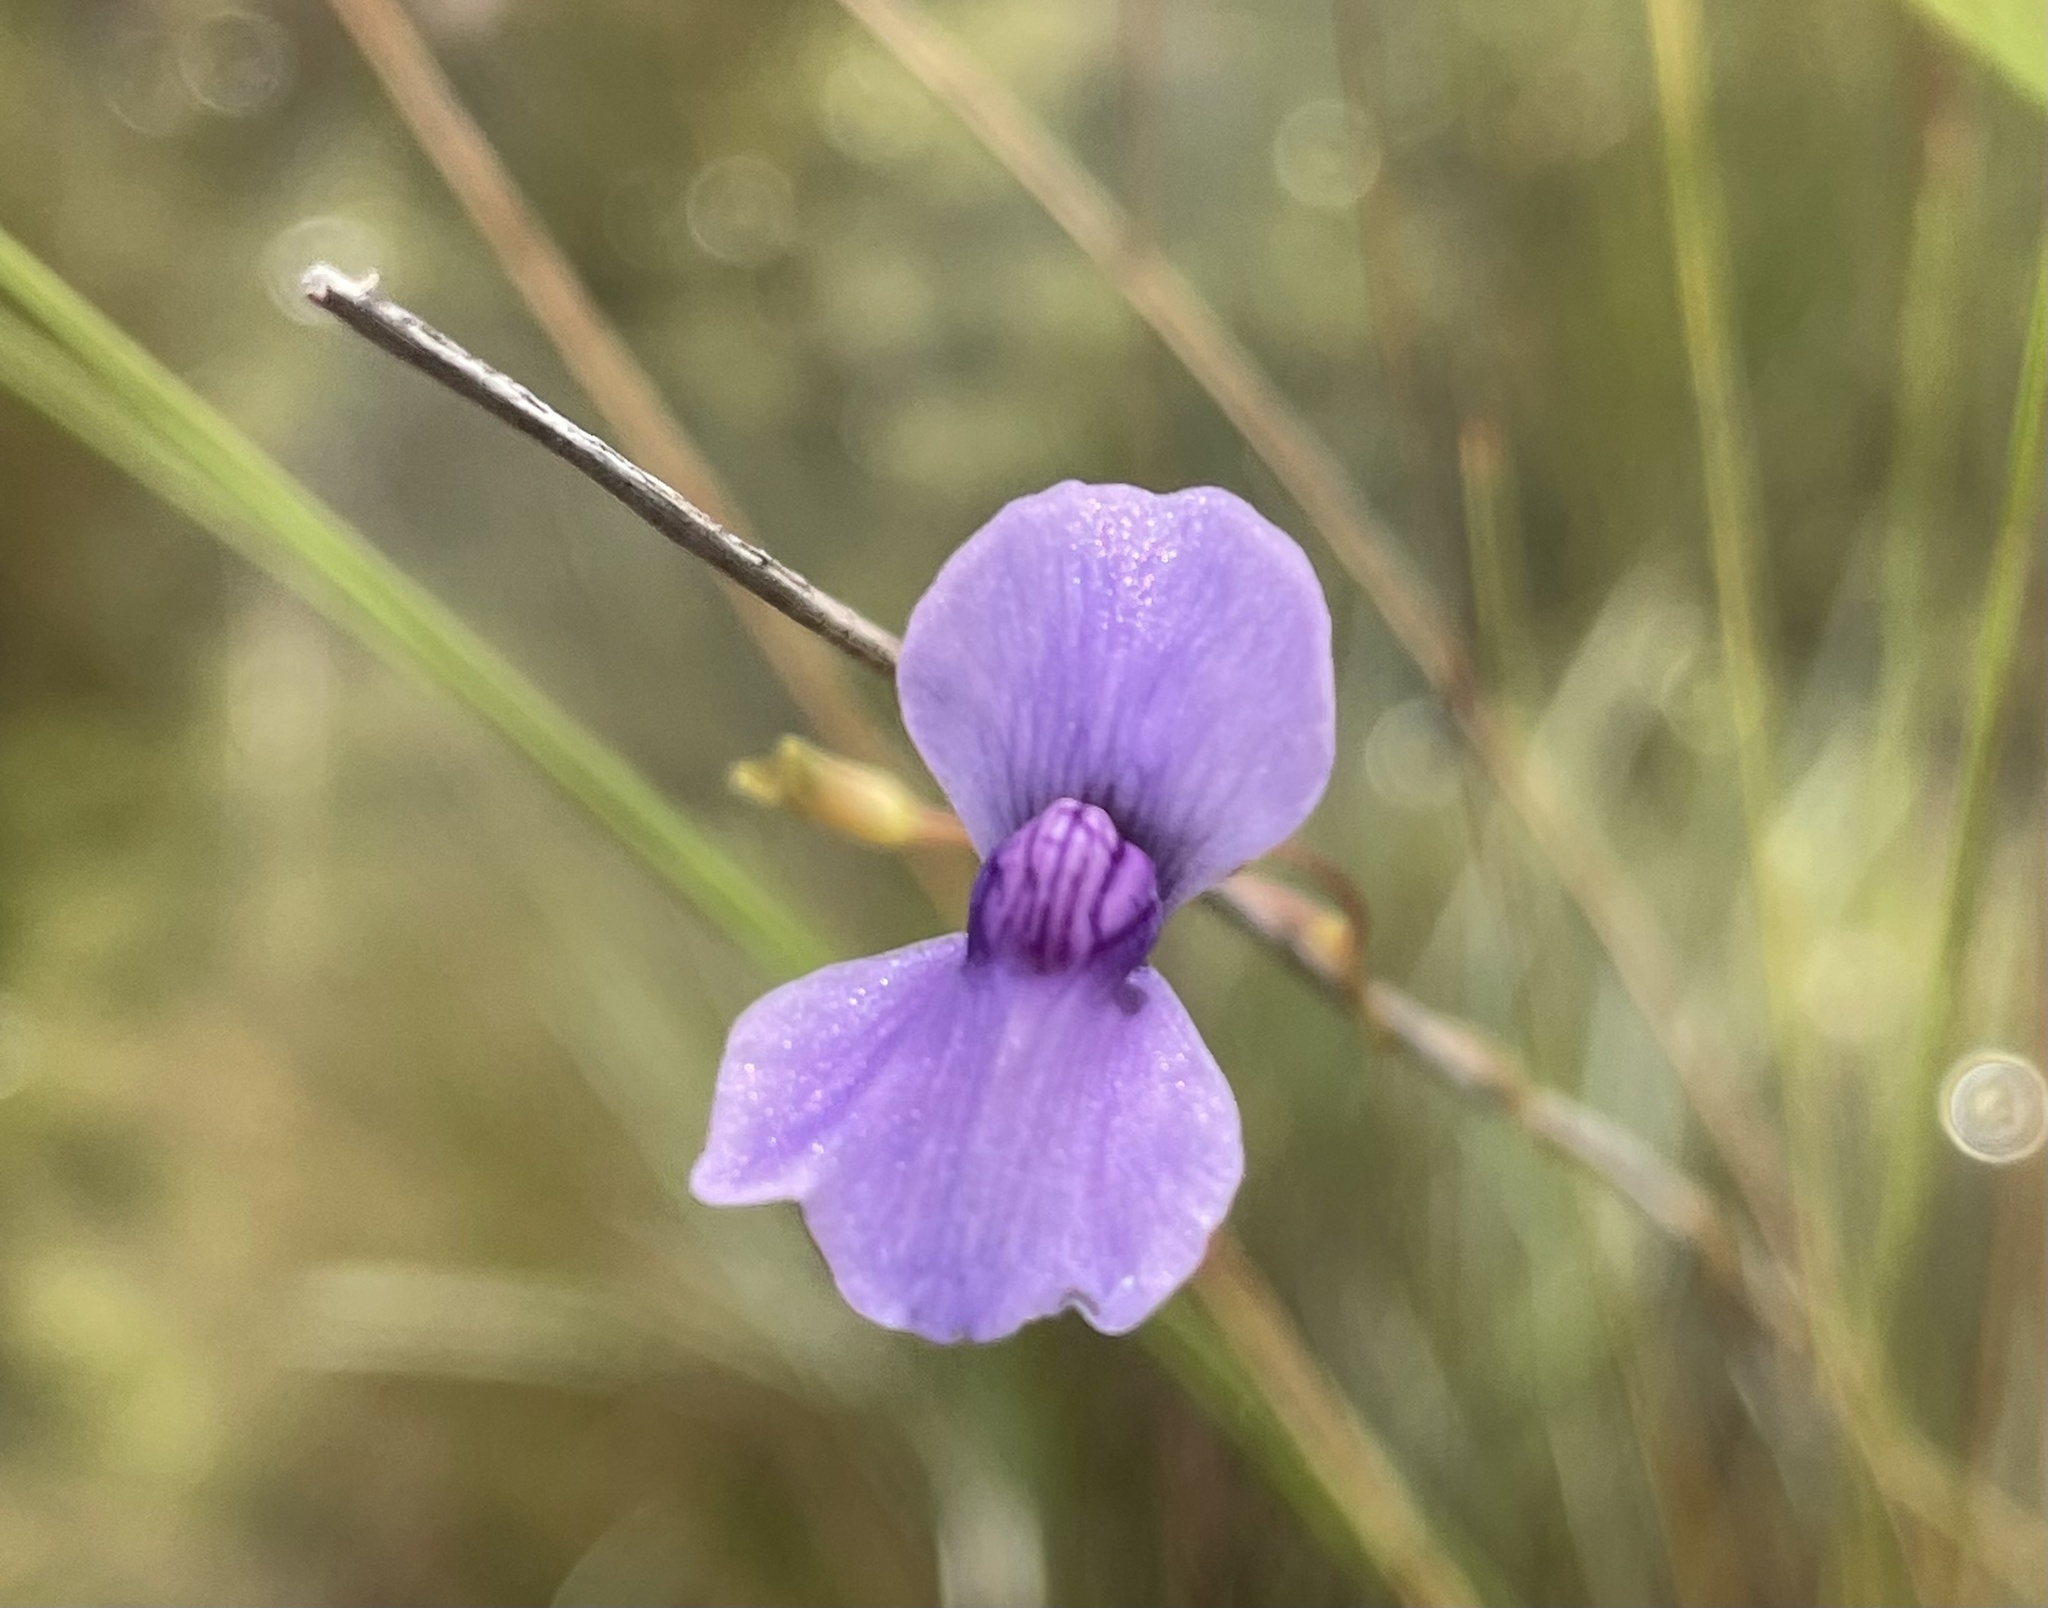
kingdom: Plantae
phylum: Tracheophyta
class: Magnoliopsida
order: Lamiales
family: Lentibulariaceae
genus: Utricularia
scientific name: Utricularia spiralis
